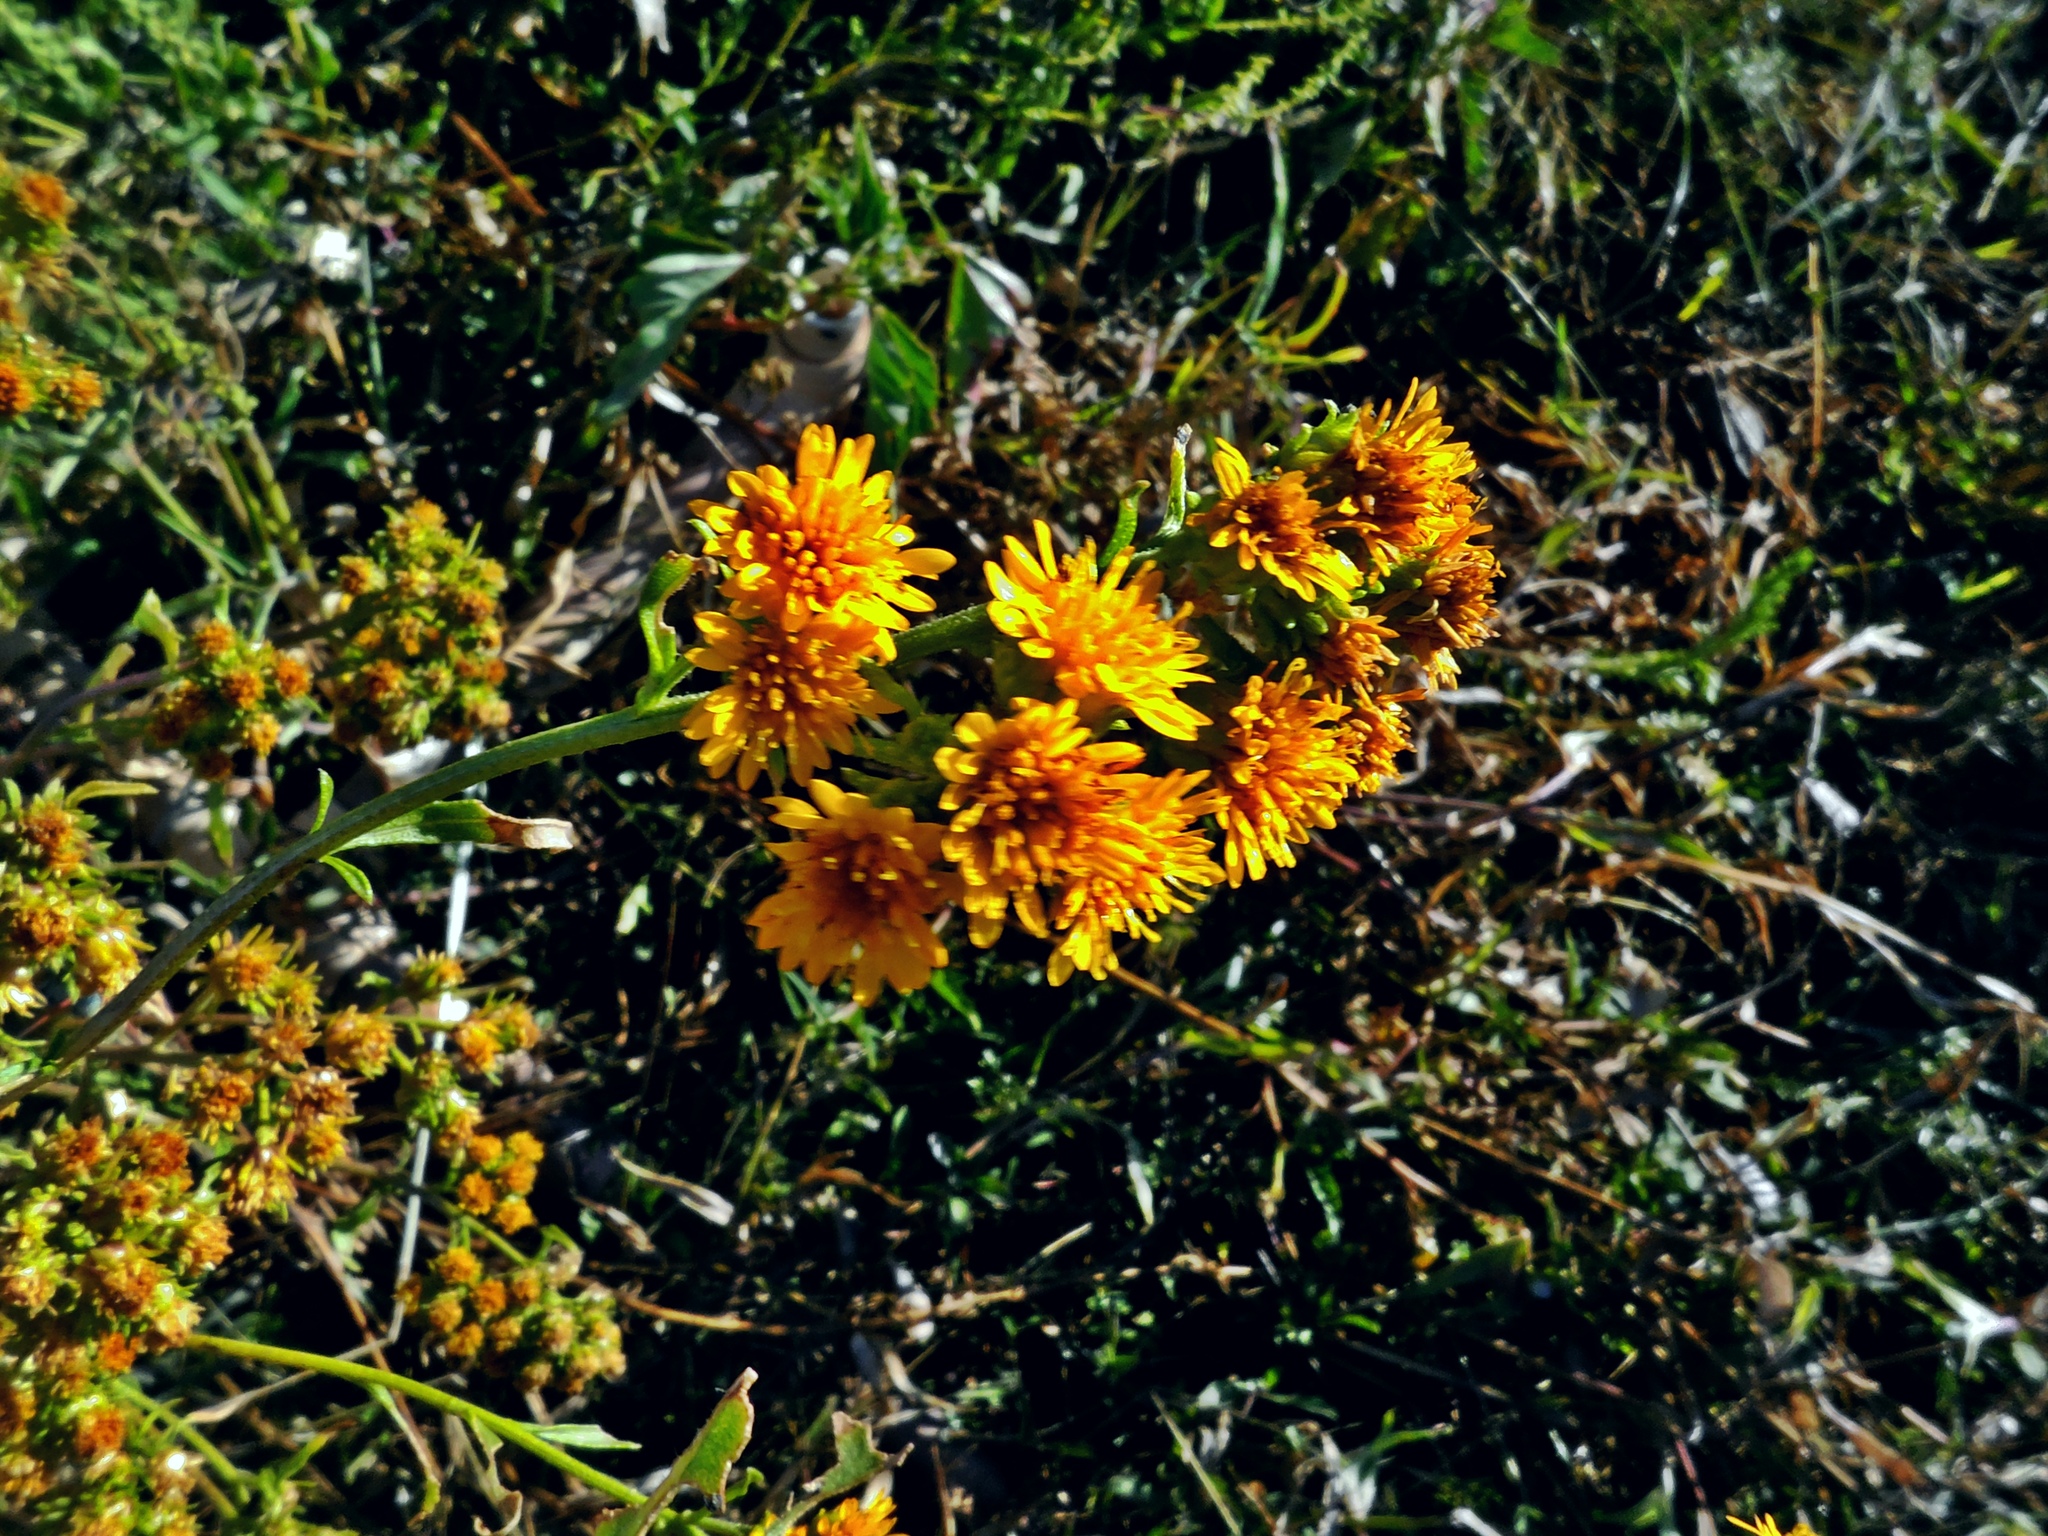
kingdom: Plantae
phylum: Tracheophyta
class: Magnoliopsida
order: Asterales
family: Asteraceae
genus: Xanthocephalum
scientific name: Xanthocephalum gymnospermoides
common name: San pedro matchweed
